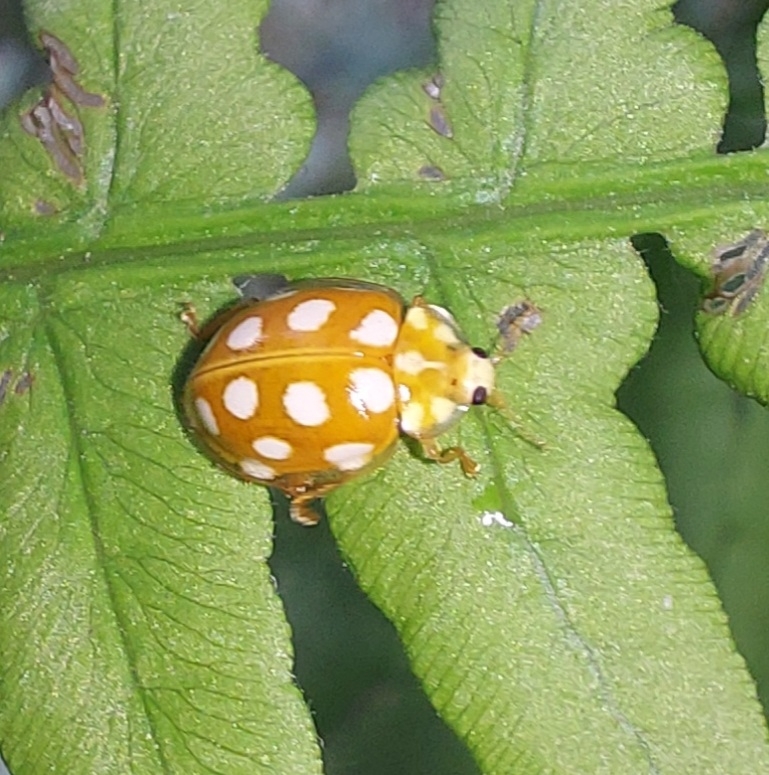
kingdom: Animalia
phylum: Arthropoda
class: Insecta
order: Coleoptera
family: Coccinellidae
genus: Halyzia
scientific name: Halyzia sedecimguttata
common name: Orange ladybird
